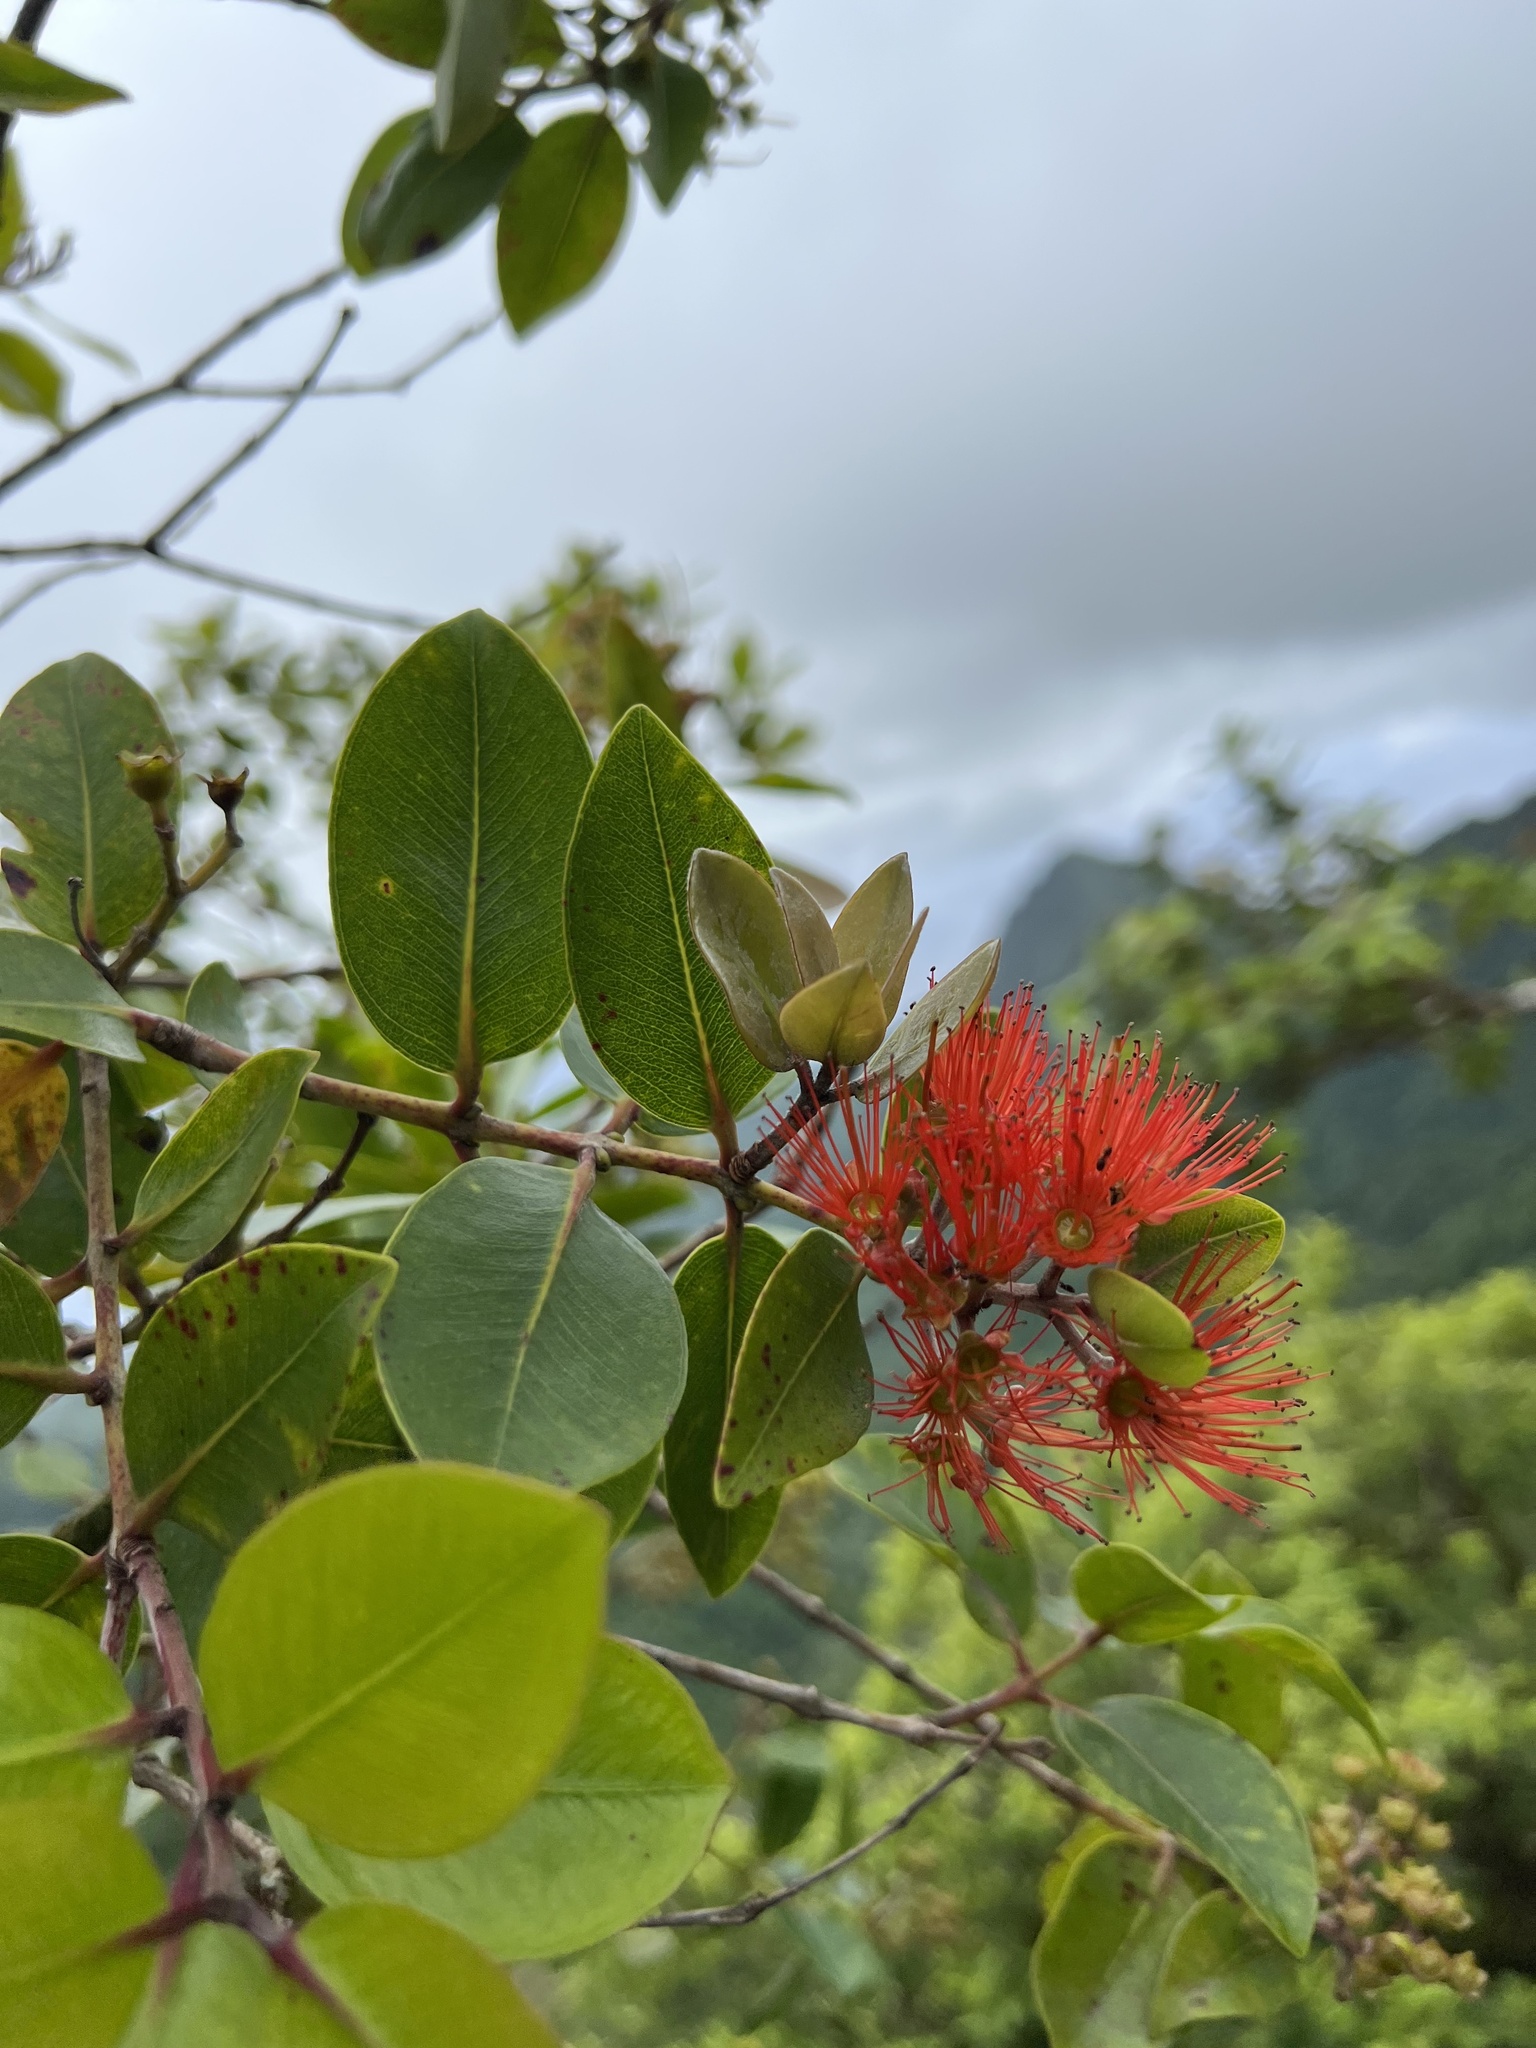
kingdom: Plantae
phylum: Tracheophyta
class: Magnoliopsida
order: Myrtales
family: Myrtaceae
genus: Metrosideros
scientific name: Metrosideros collina
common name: Vunga
